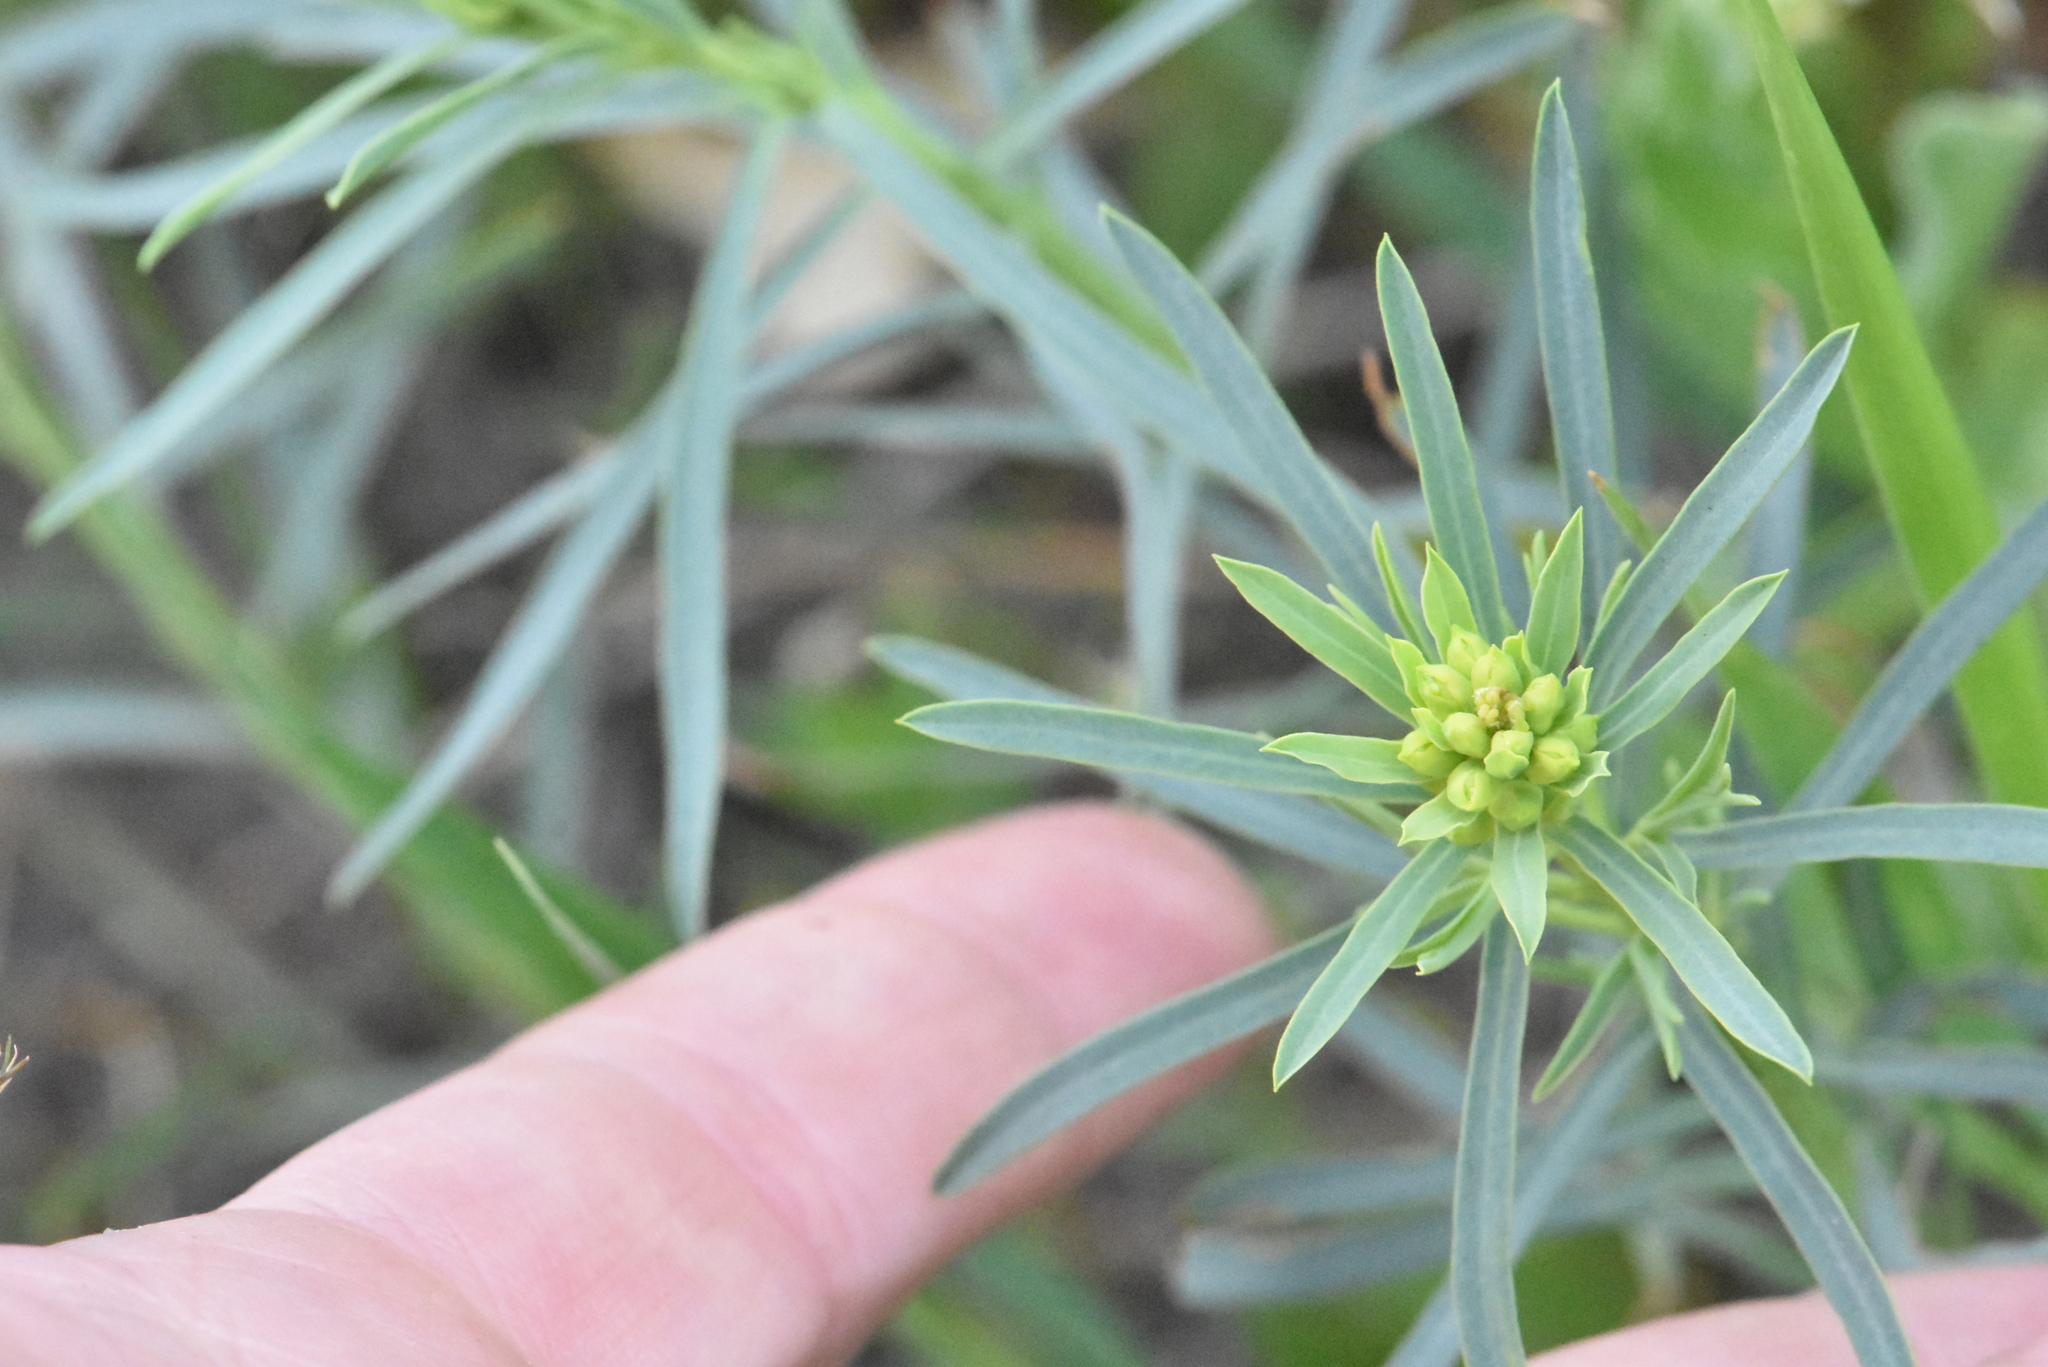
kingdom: Plantae
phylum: Tracheophyta
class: Magnoliopsida
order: Malpighiales
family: Euphorbiaceae
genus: Euphorbia
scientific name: Euphorbia virgata
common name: Leafy spurge
